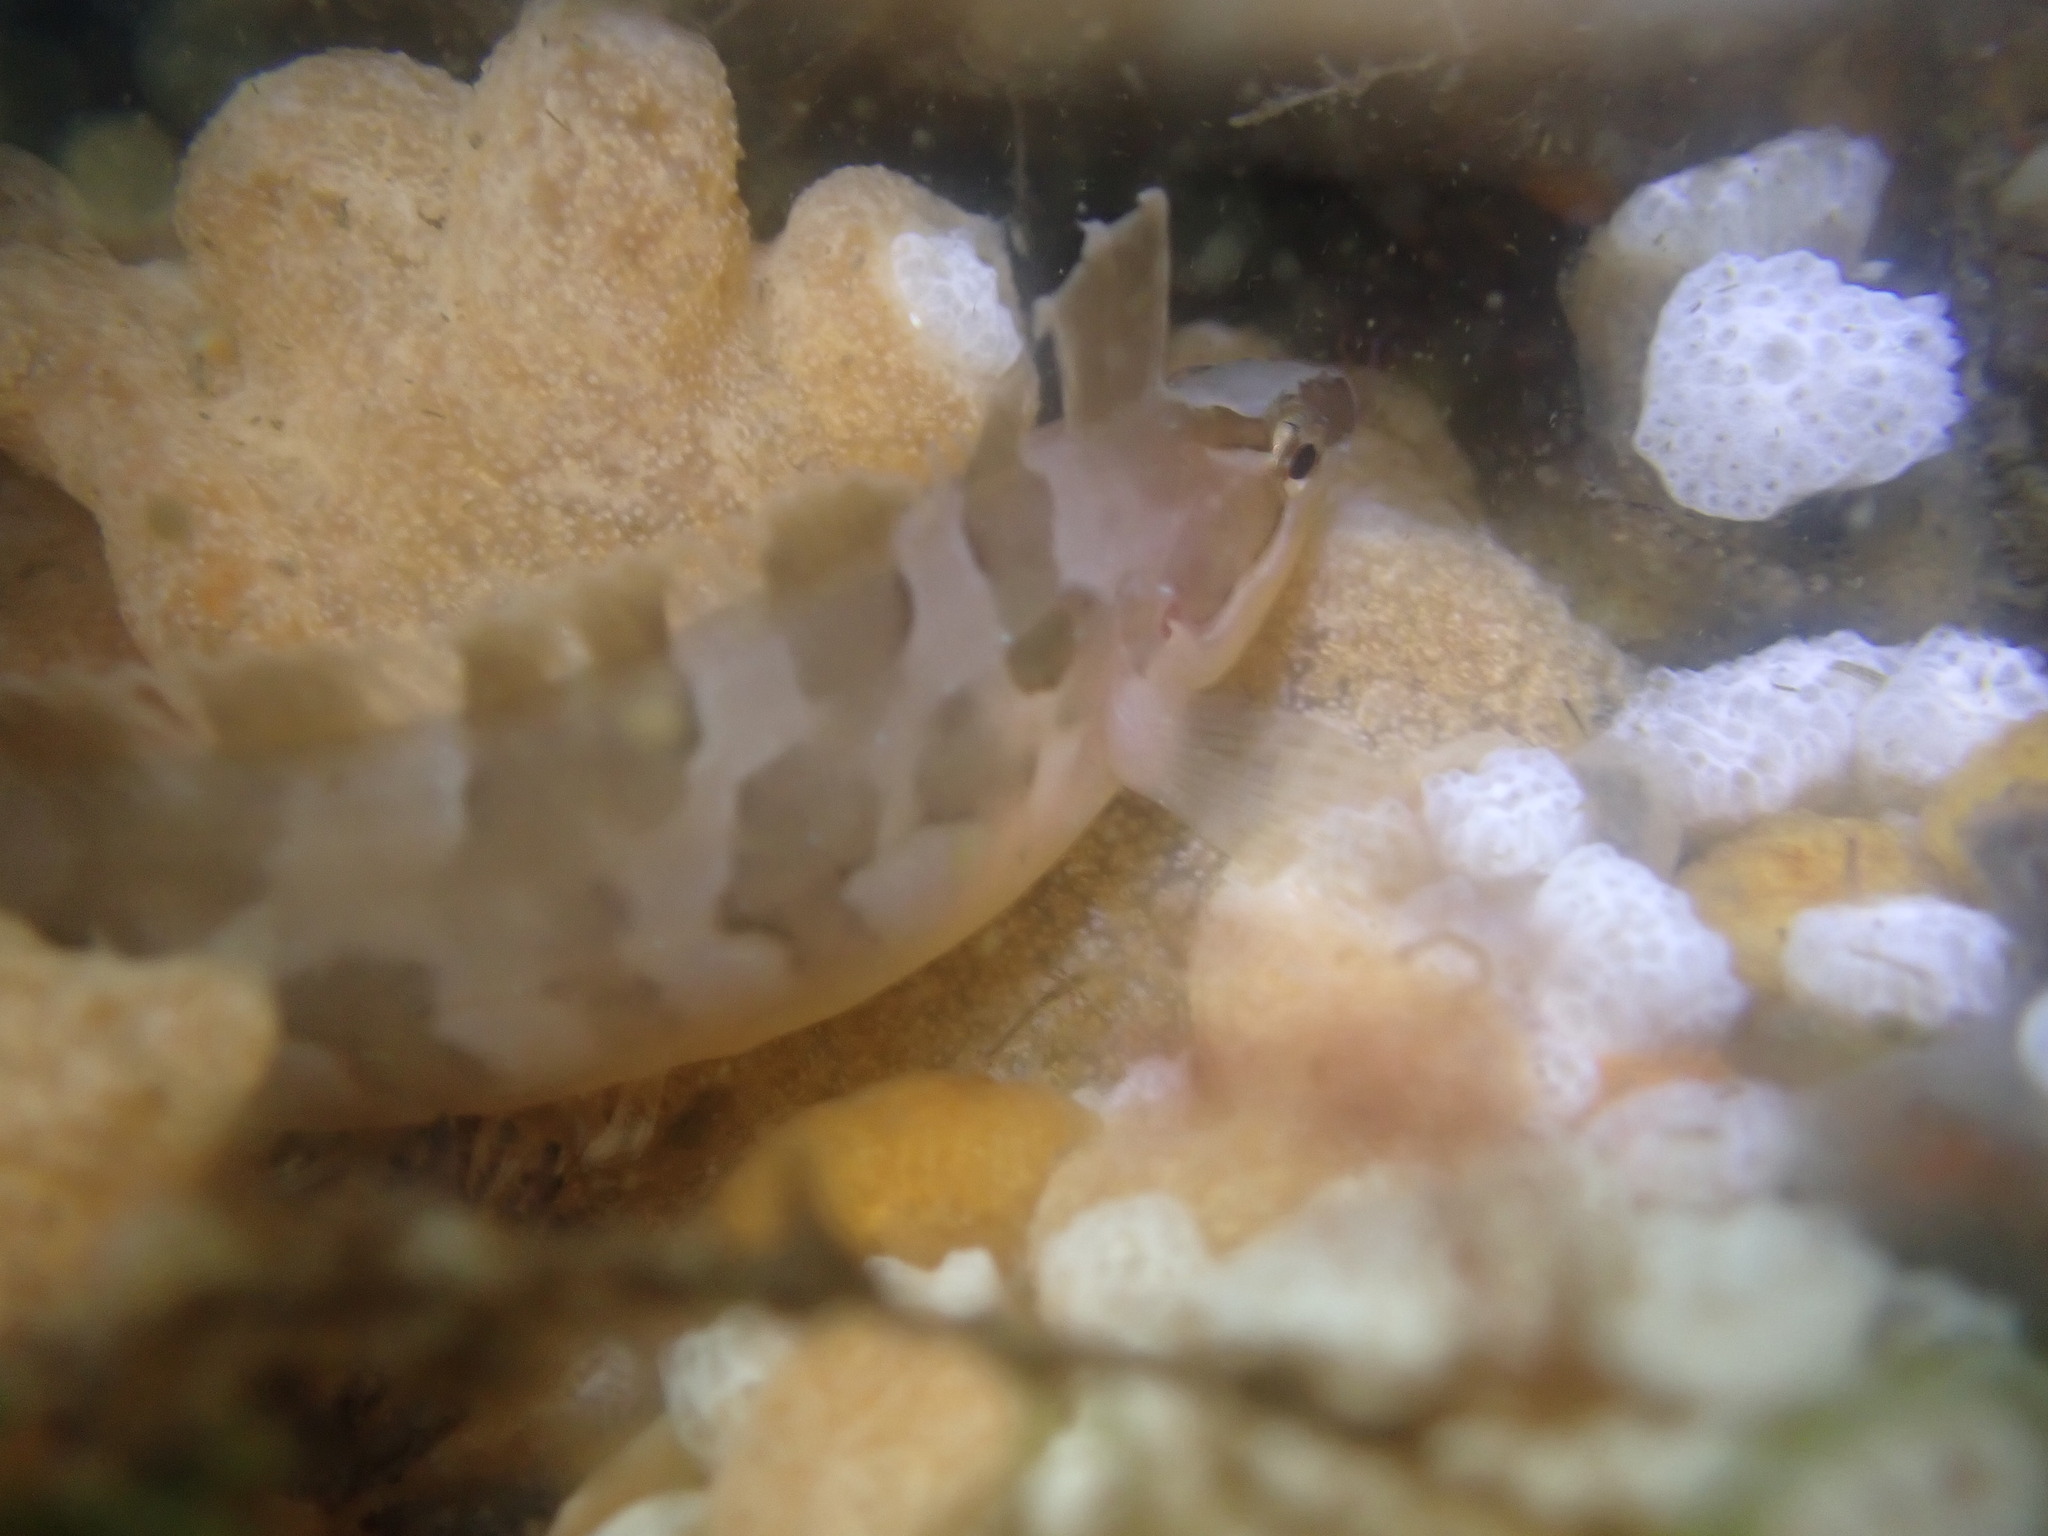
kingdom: Animalia
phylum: Chordata
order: Perciformes
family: Clinidae
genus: Gibbonsia
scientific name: Gibbonsia metzi
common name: Striped kelpfish
